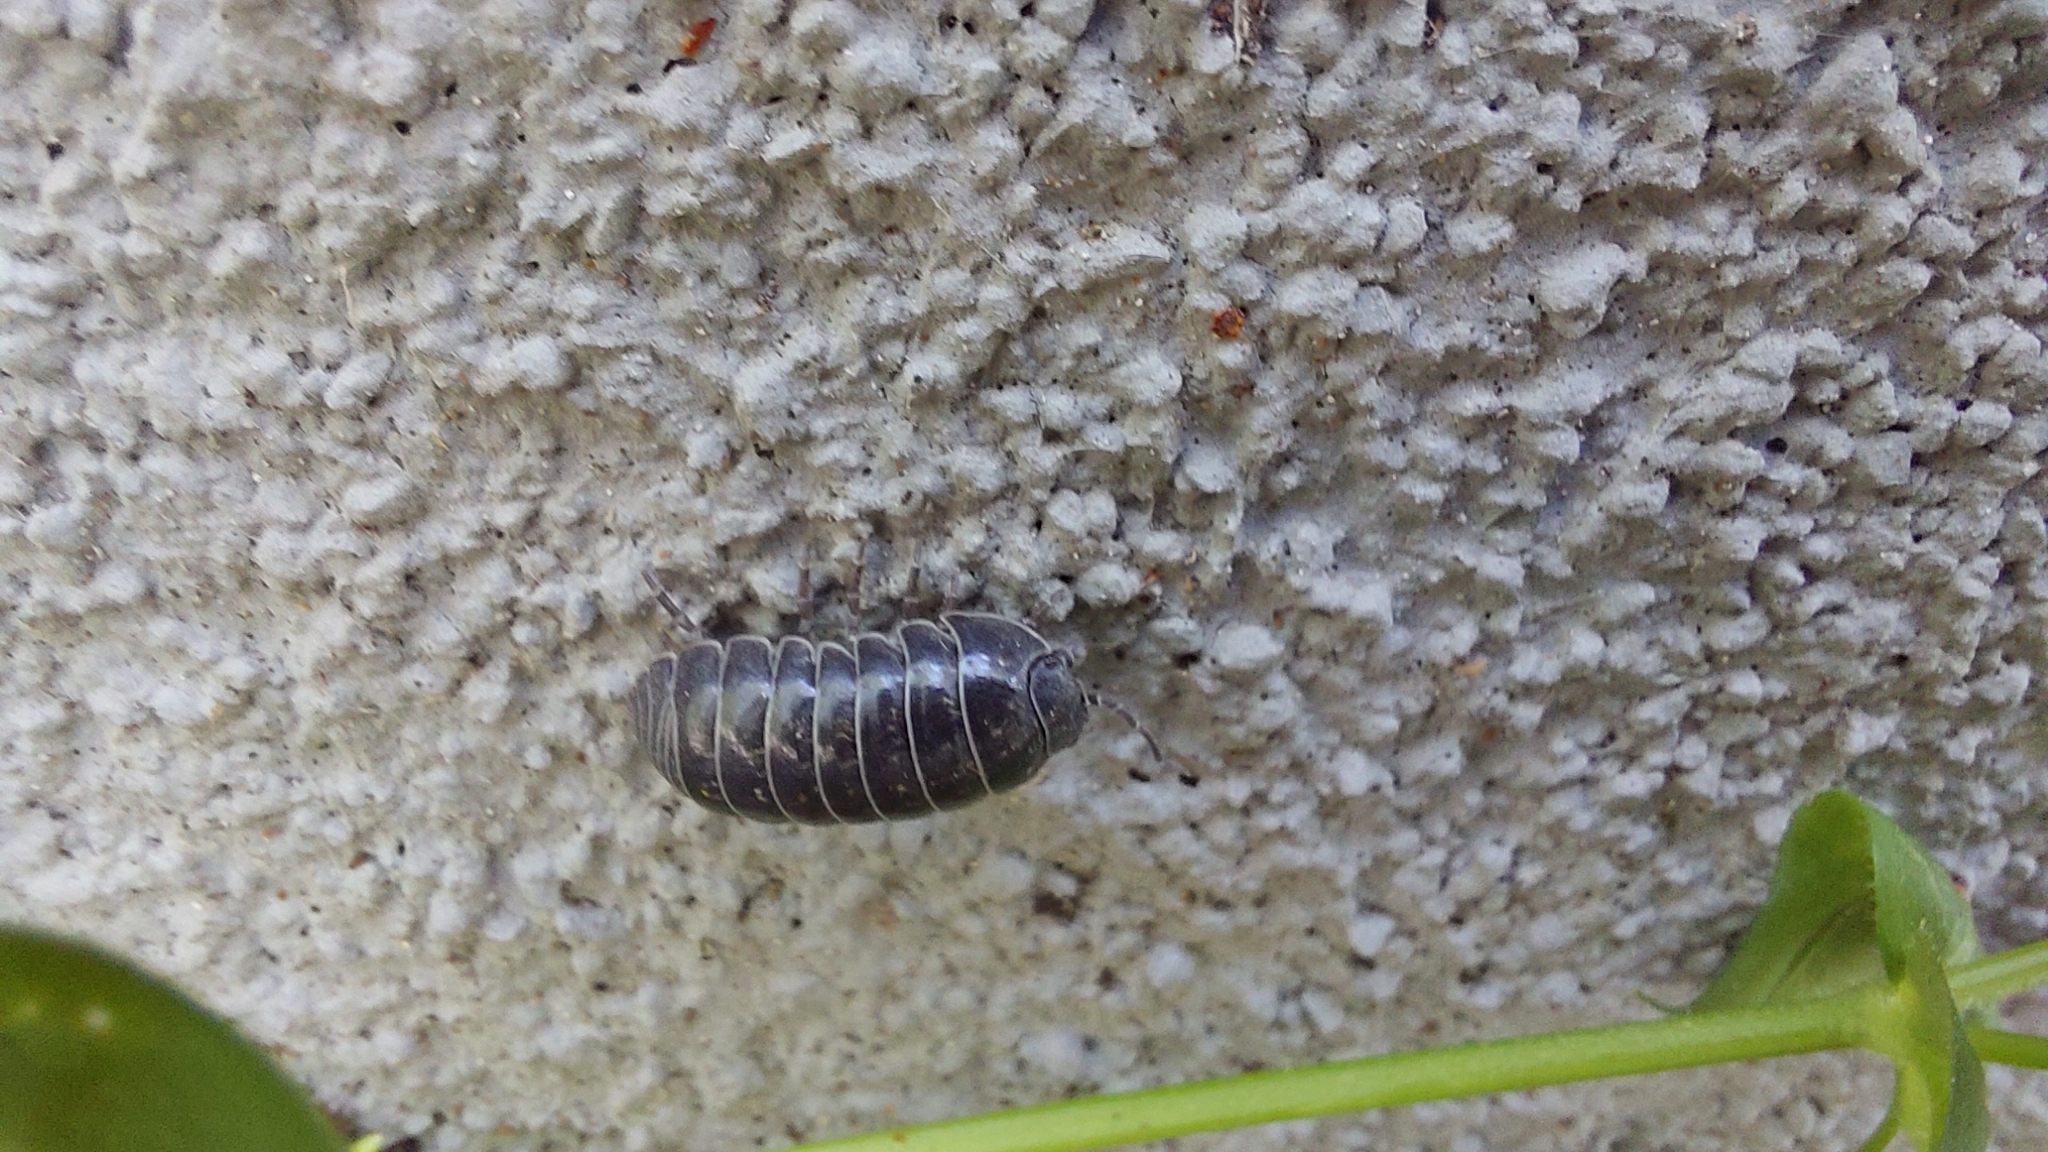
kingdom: Animalia
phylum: Arthropoda
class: Malacostraca
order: Isopoda
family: Armadillidiidae
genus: Armadillidium
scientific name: Armadillidium vulgare
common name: Common pill woodlouse
